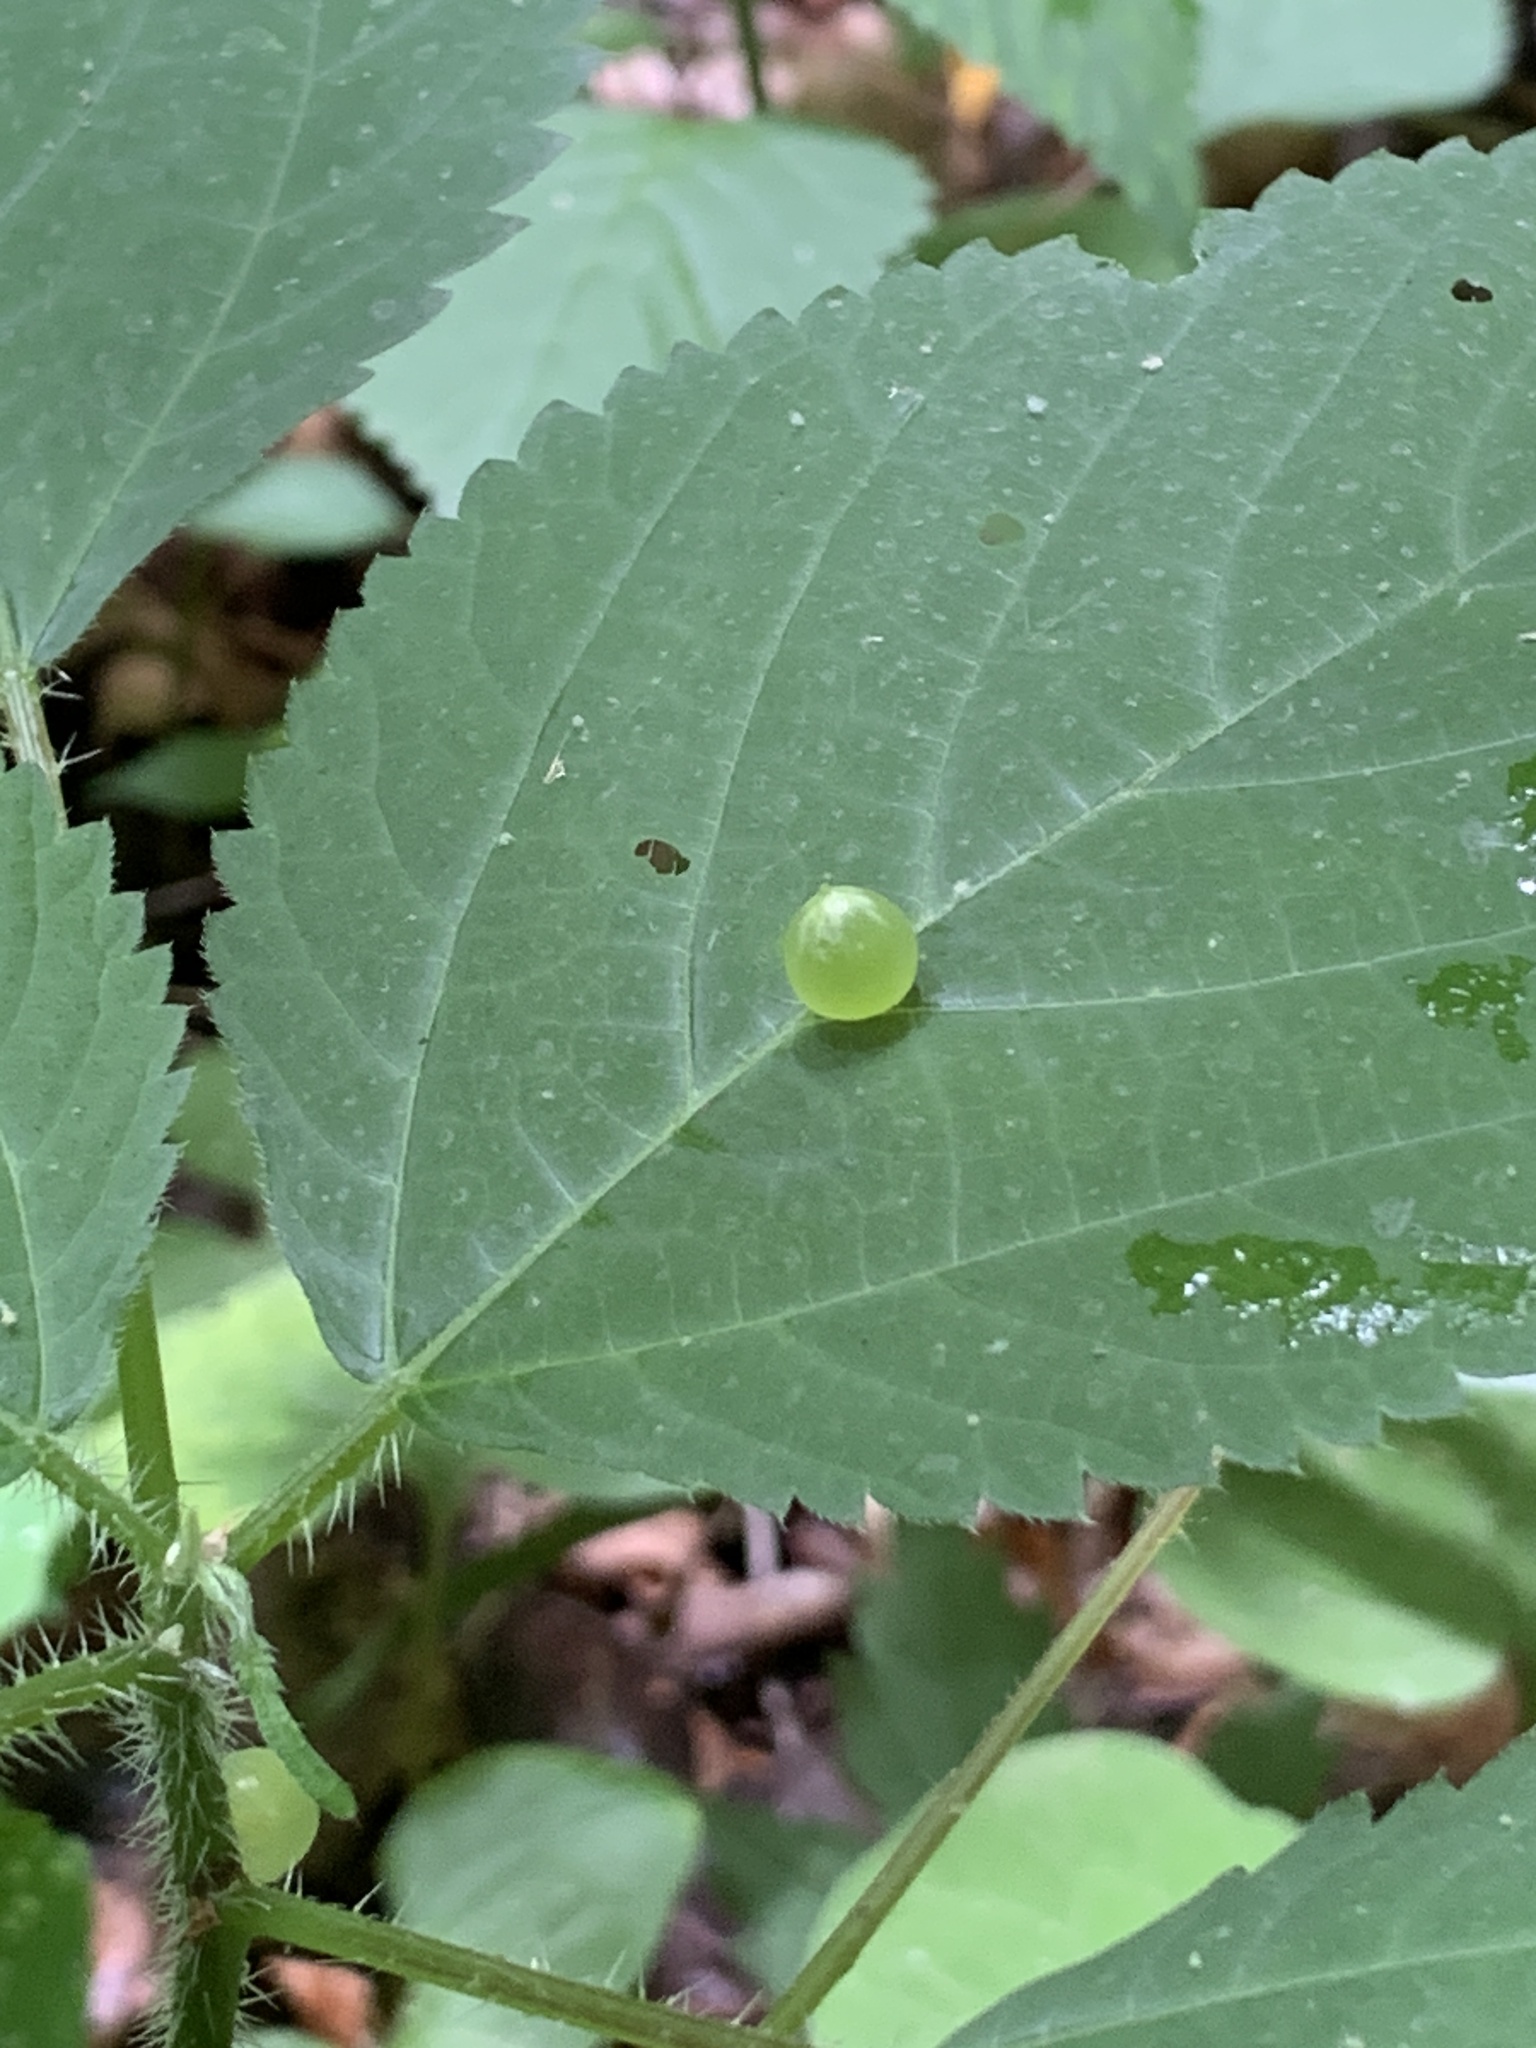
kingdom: Animalia
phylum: Arthropoda
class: Insecta
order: Diptera
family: Cecidomyiidae
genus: Dasineura
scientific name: Dasineura investita
